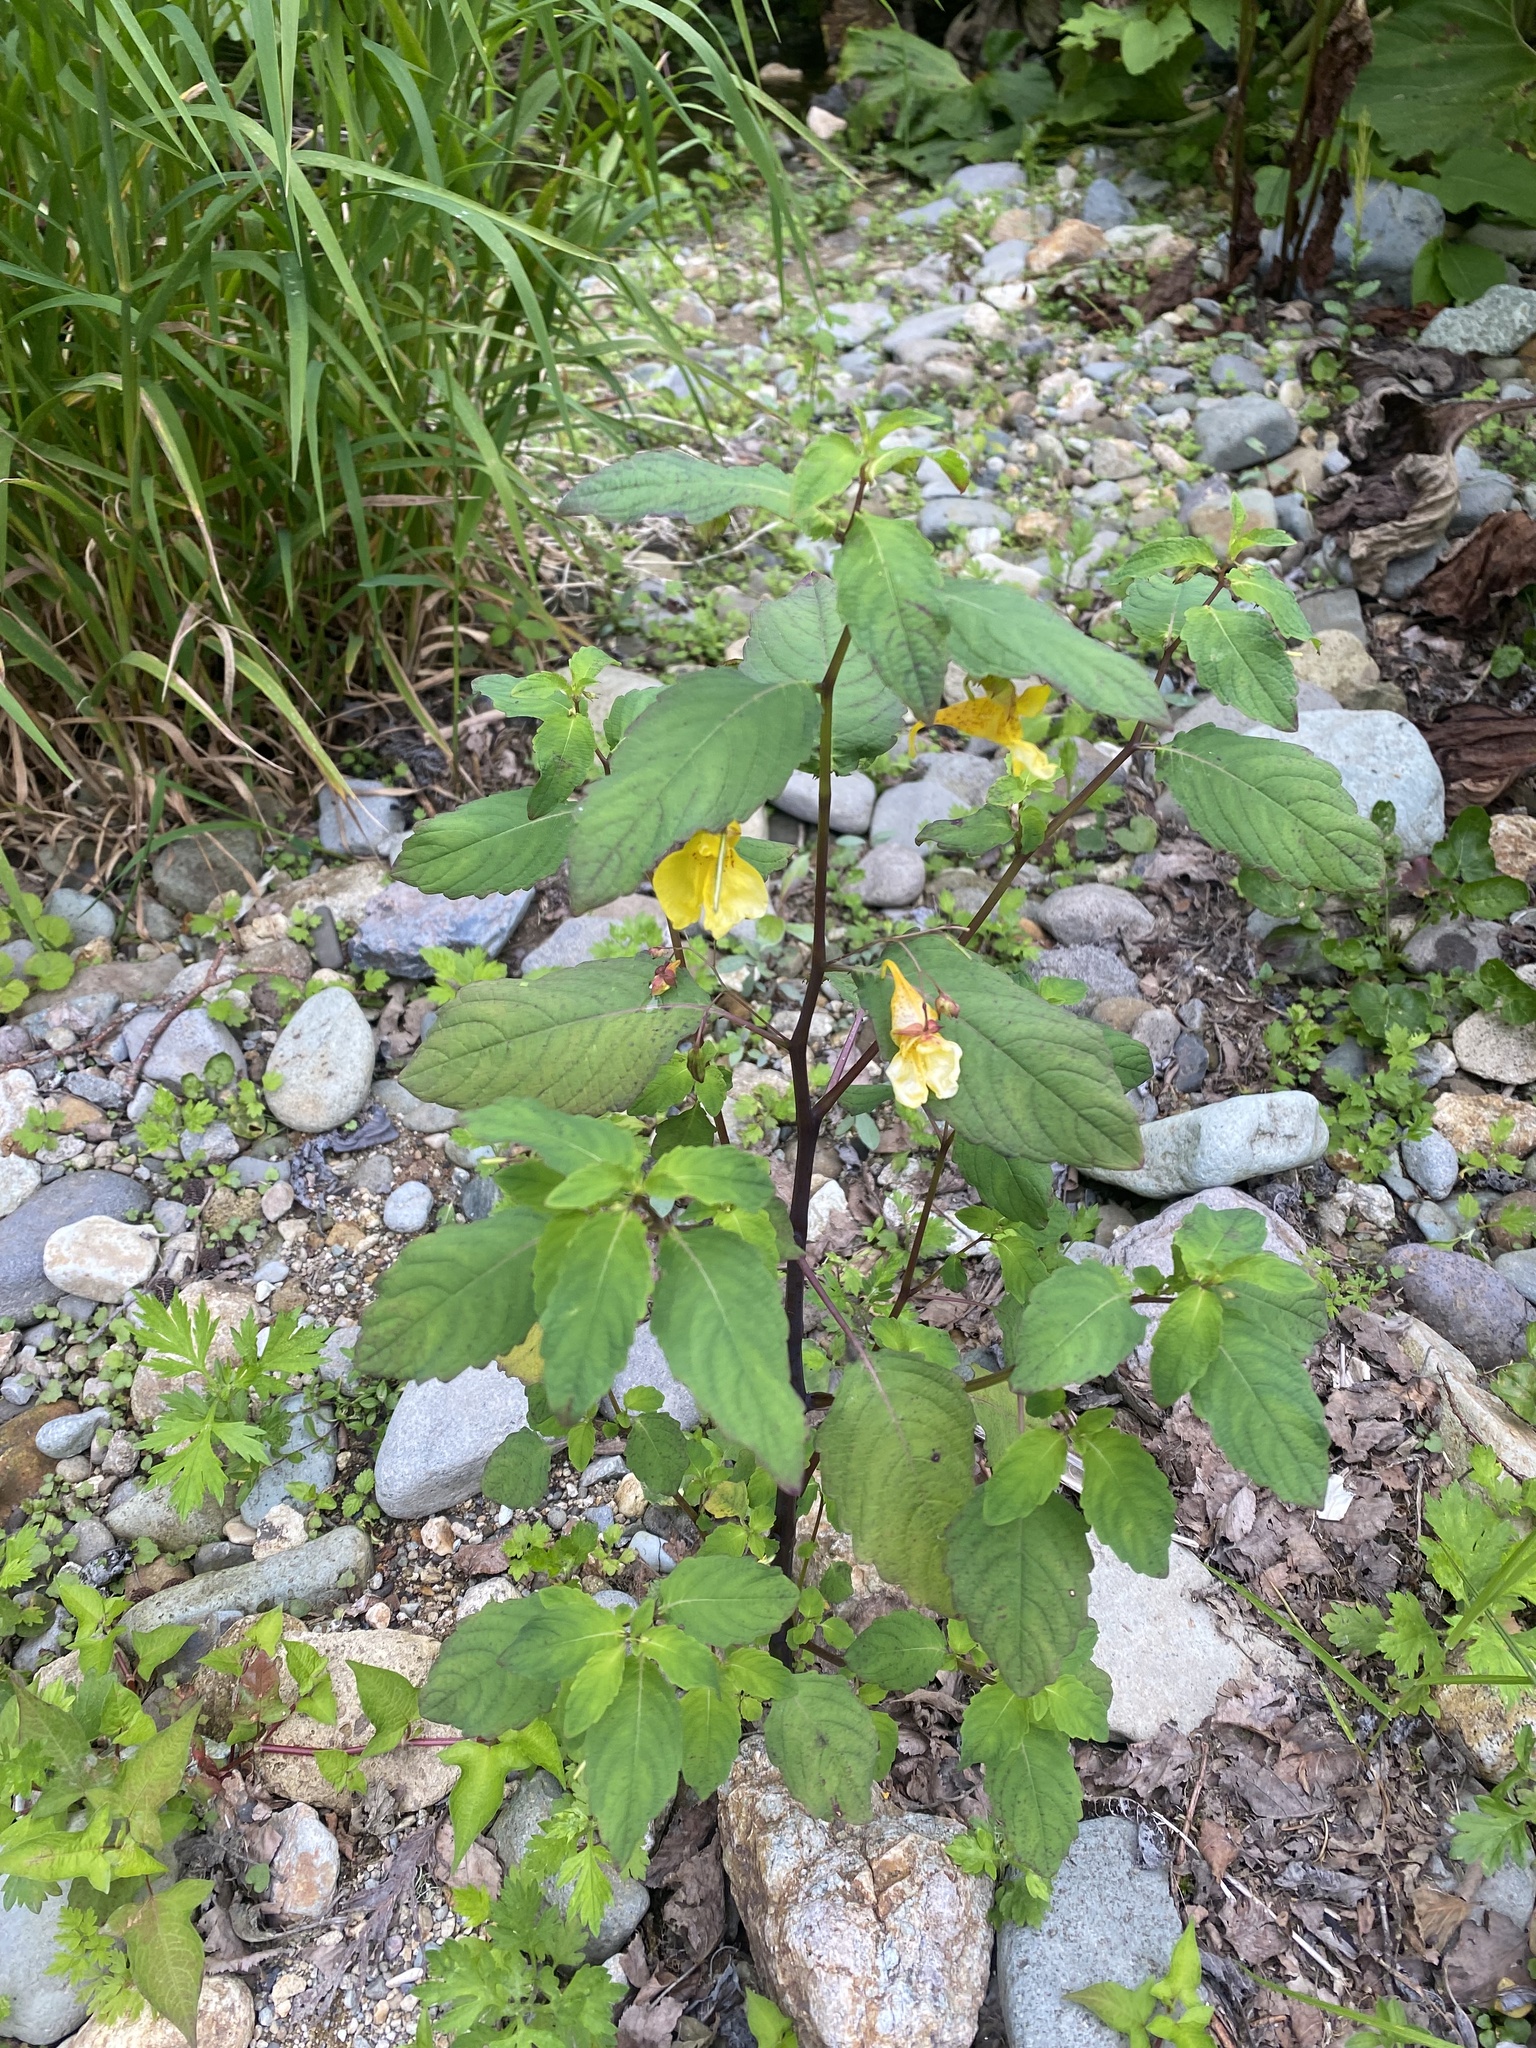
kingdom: Plantae
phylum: Tracheophyta
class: Magnoliopsida
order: Ericales
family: Balsaminaceae
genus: Impatiens
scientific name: Impatiens noli-tangere
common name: Touch-me-not balsam
